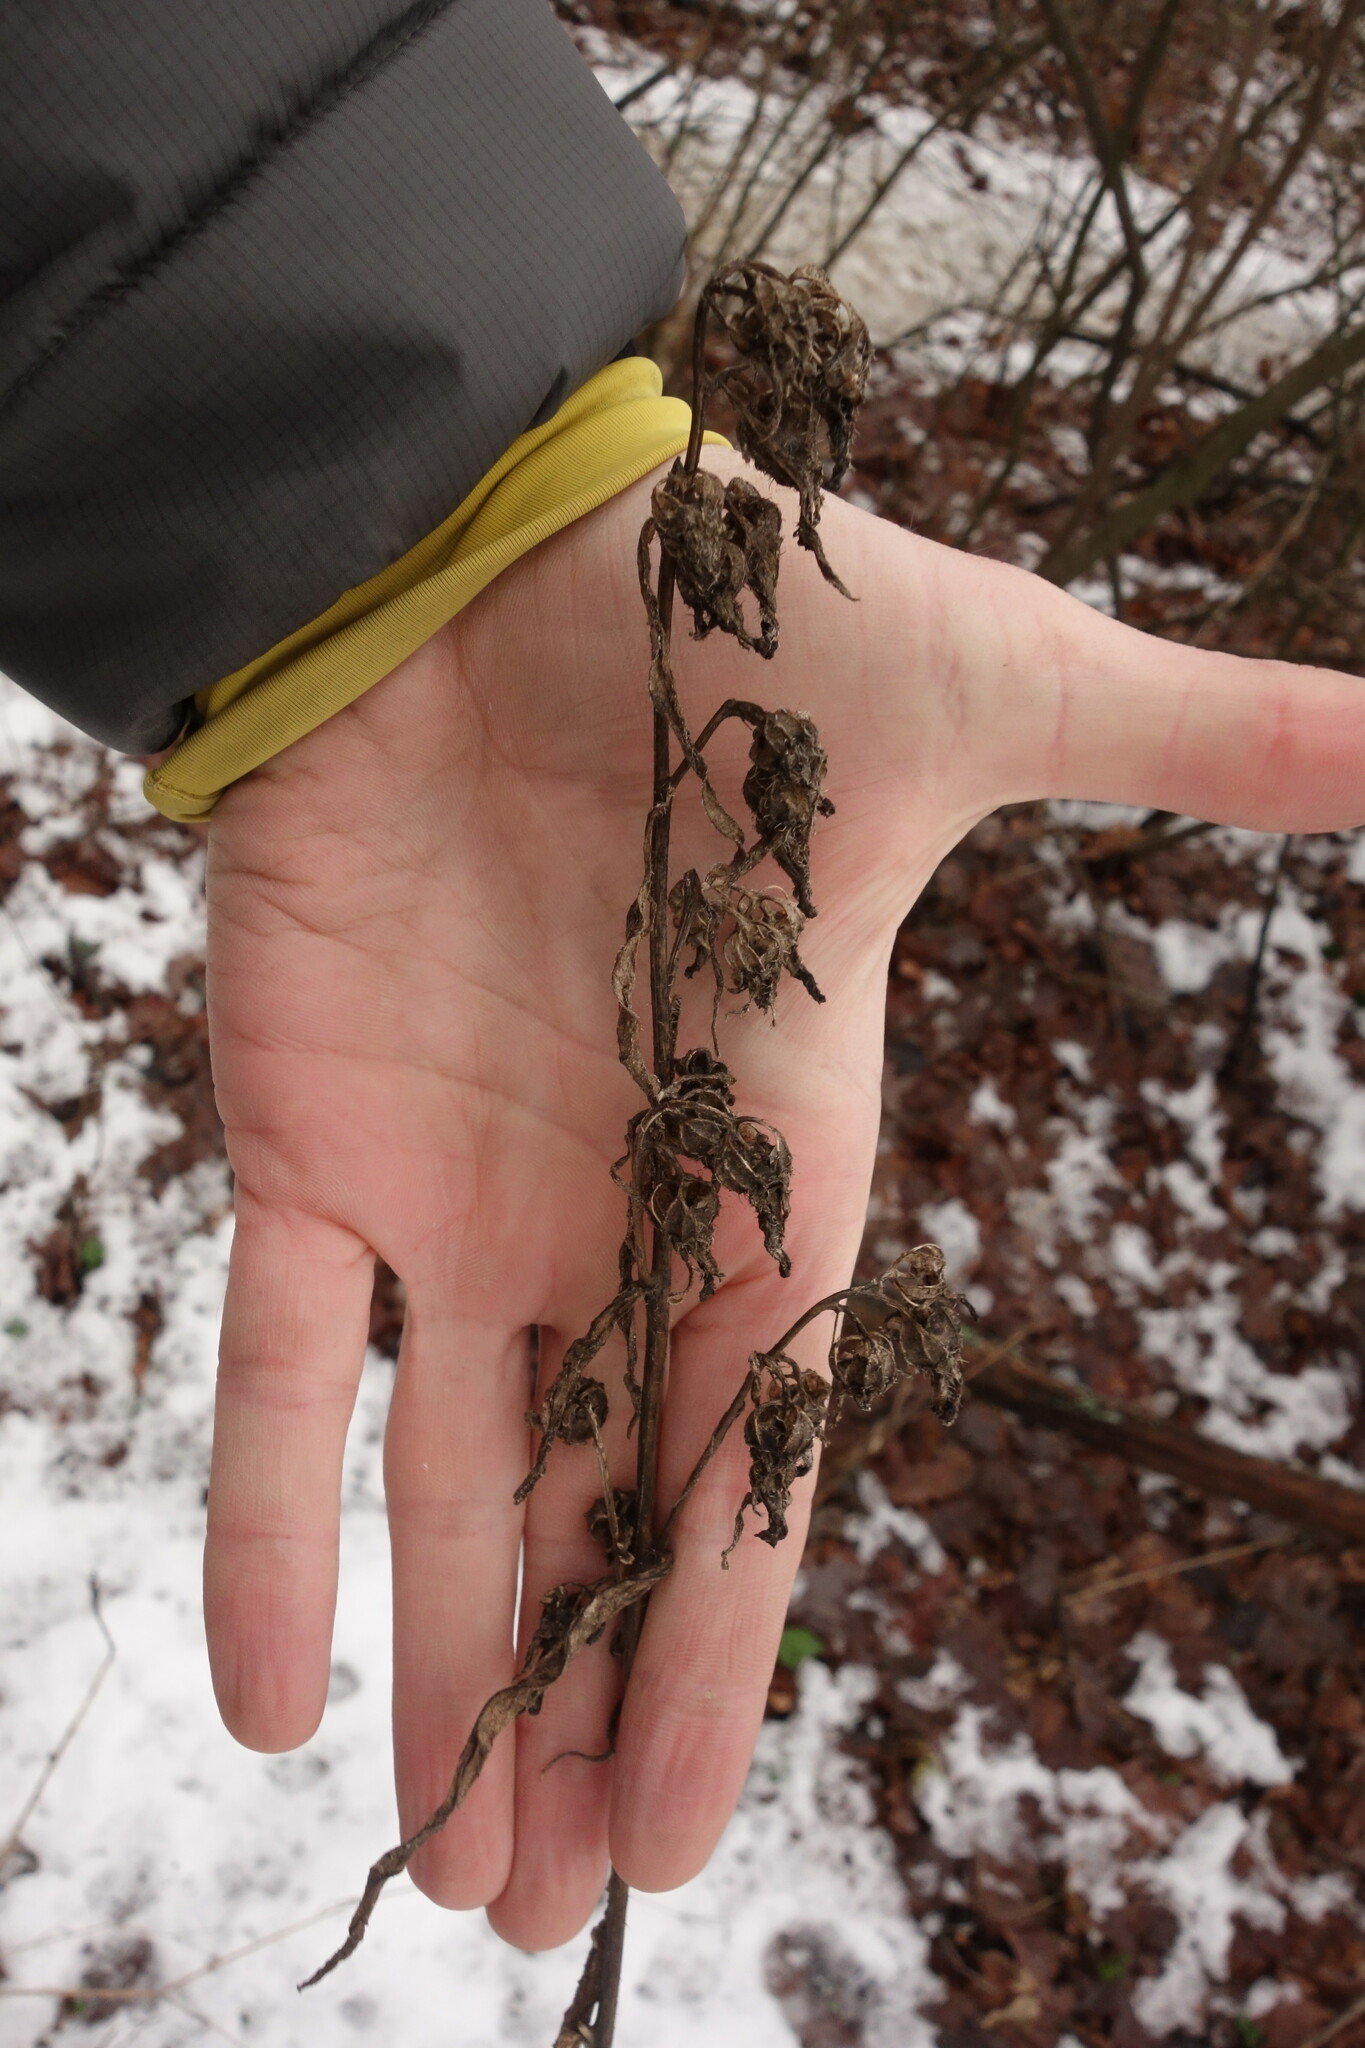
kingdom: Plantae
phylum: Tracheophyta
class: Magnoliopsida
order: Asterales
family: Campanulaceae
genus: Campanula
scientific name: Campanula trachelium
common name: Nettle-leaved bellflower
